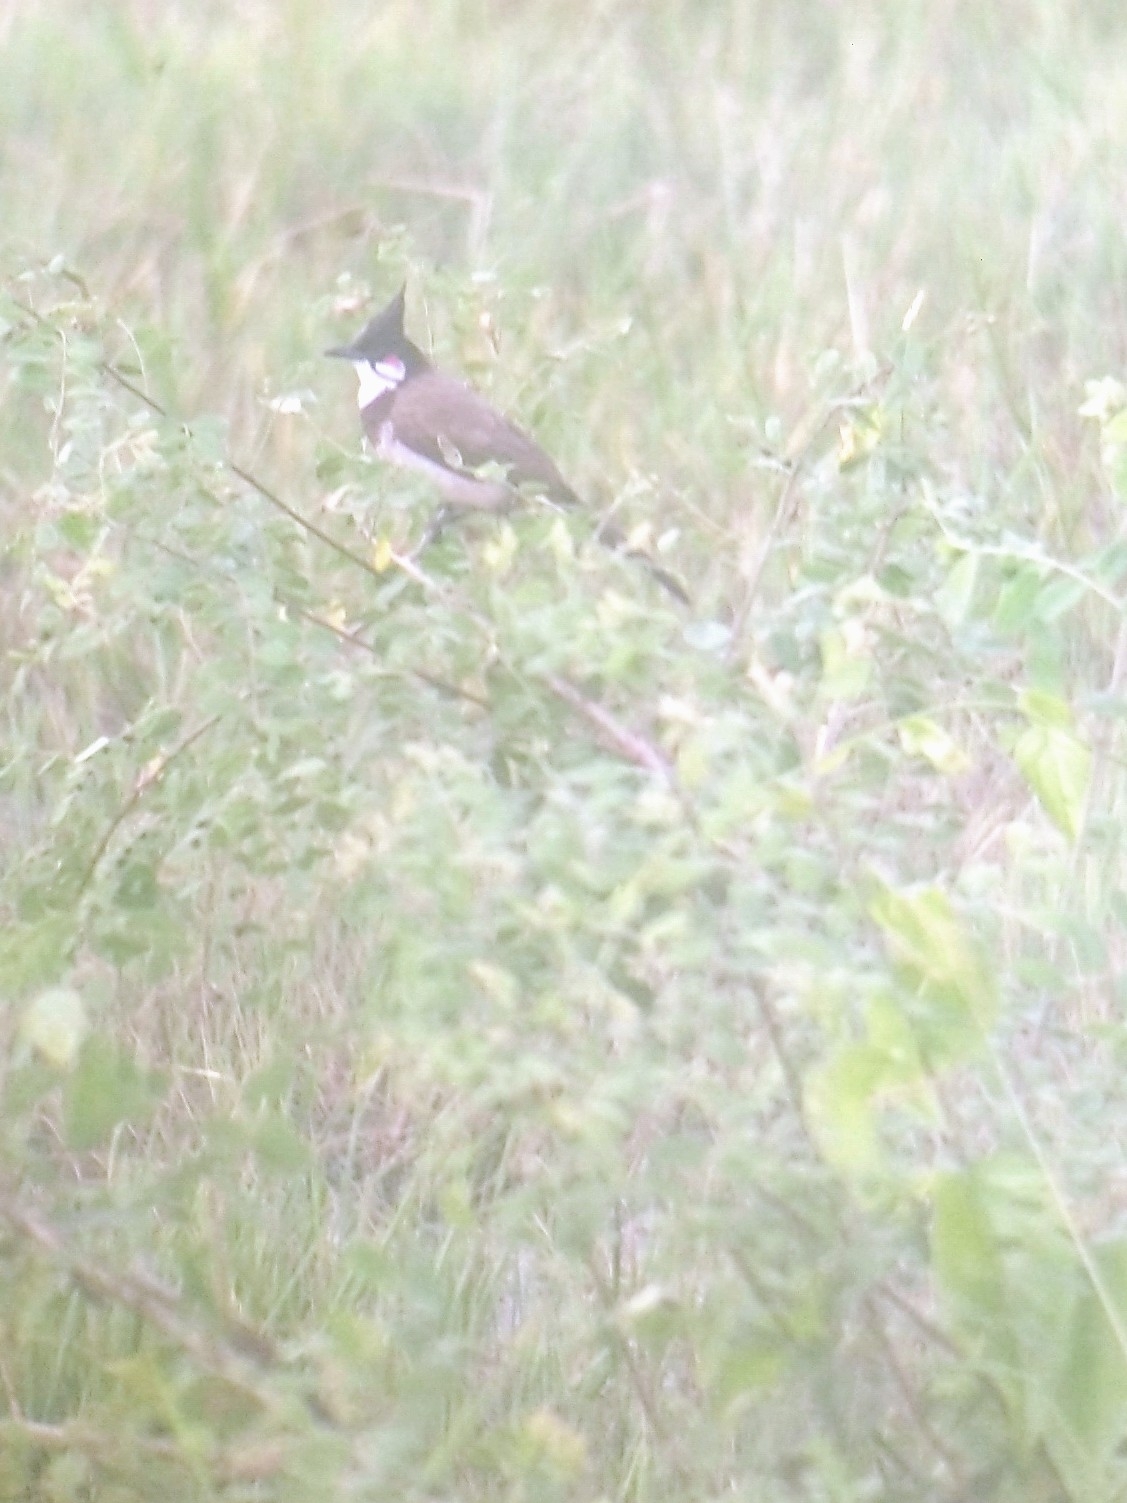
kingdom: Animalia
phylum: Chordata
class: Aves
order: Passeriformes
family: Pycnonotidae
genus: Pycnonotus
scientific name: Pycnonotus jocosus
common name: Red-whiskered bulbul
